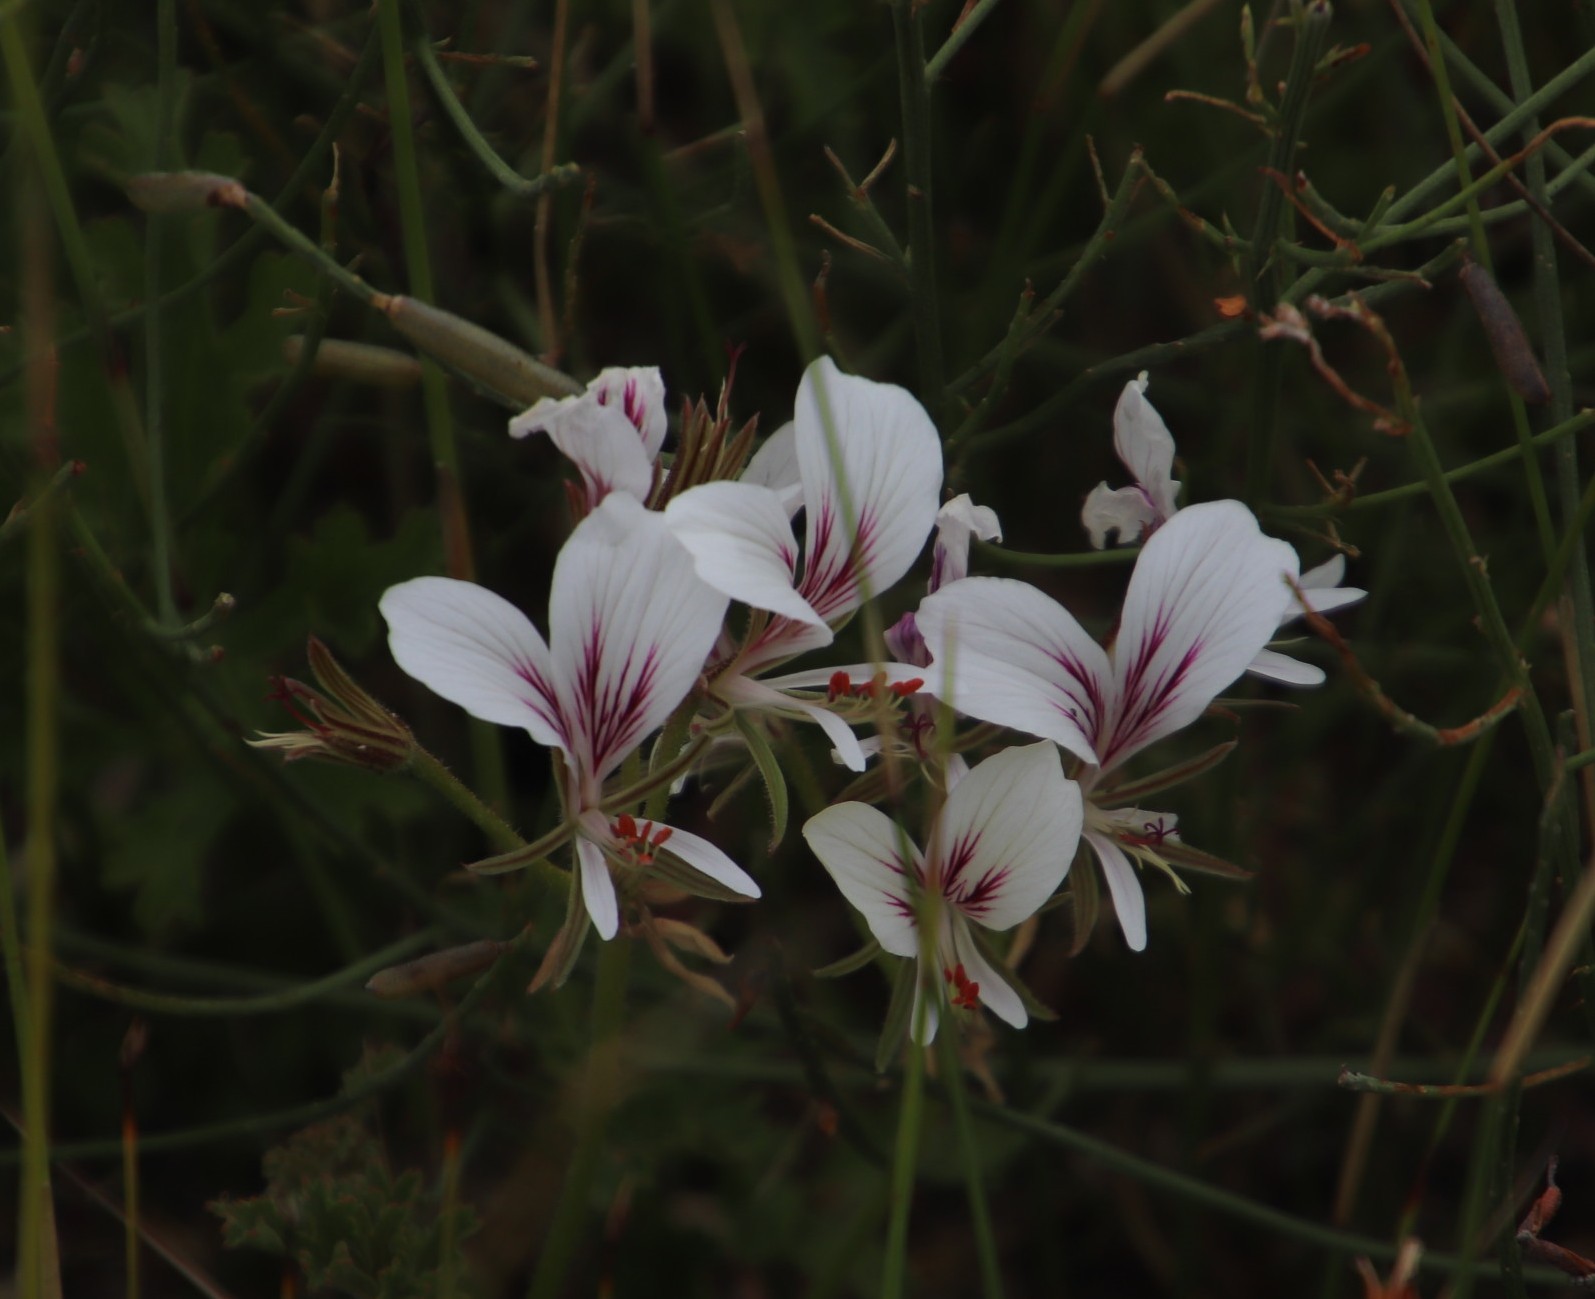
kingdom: Plantae
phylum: Tracheophyta
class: Magnoliopsida
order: Geraniales
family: Geraniaceae
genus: Pelargonium
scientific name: Pelargonium longicaule
